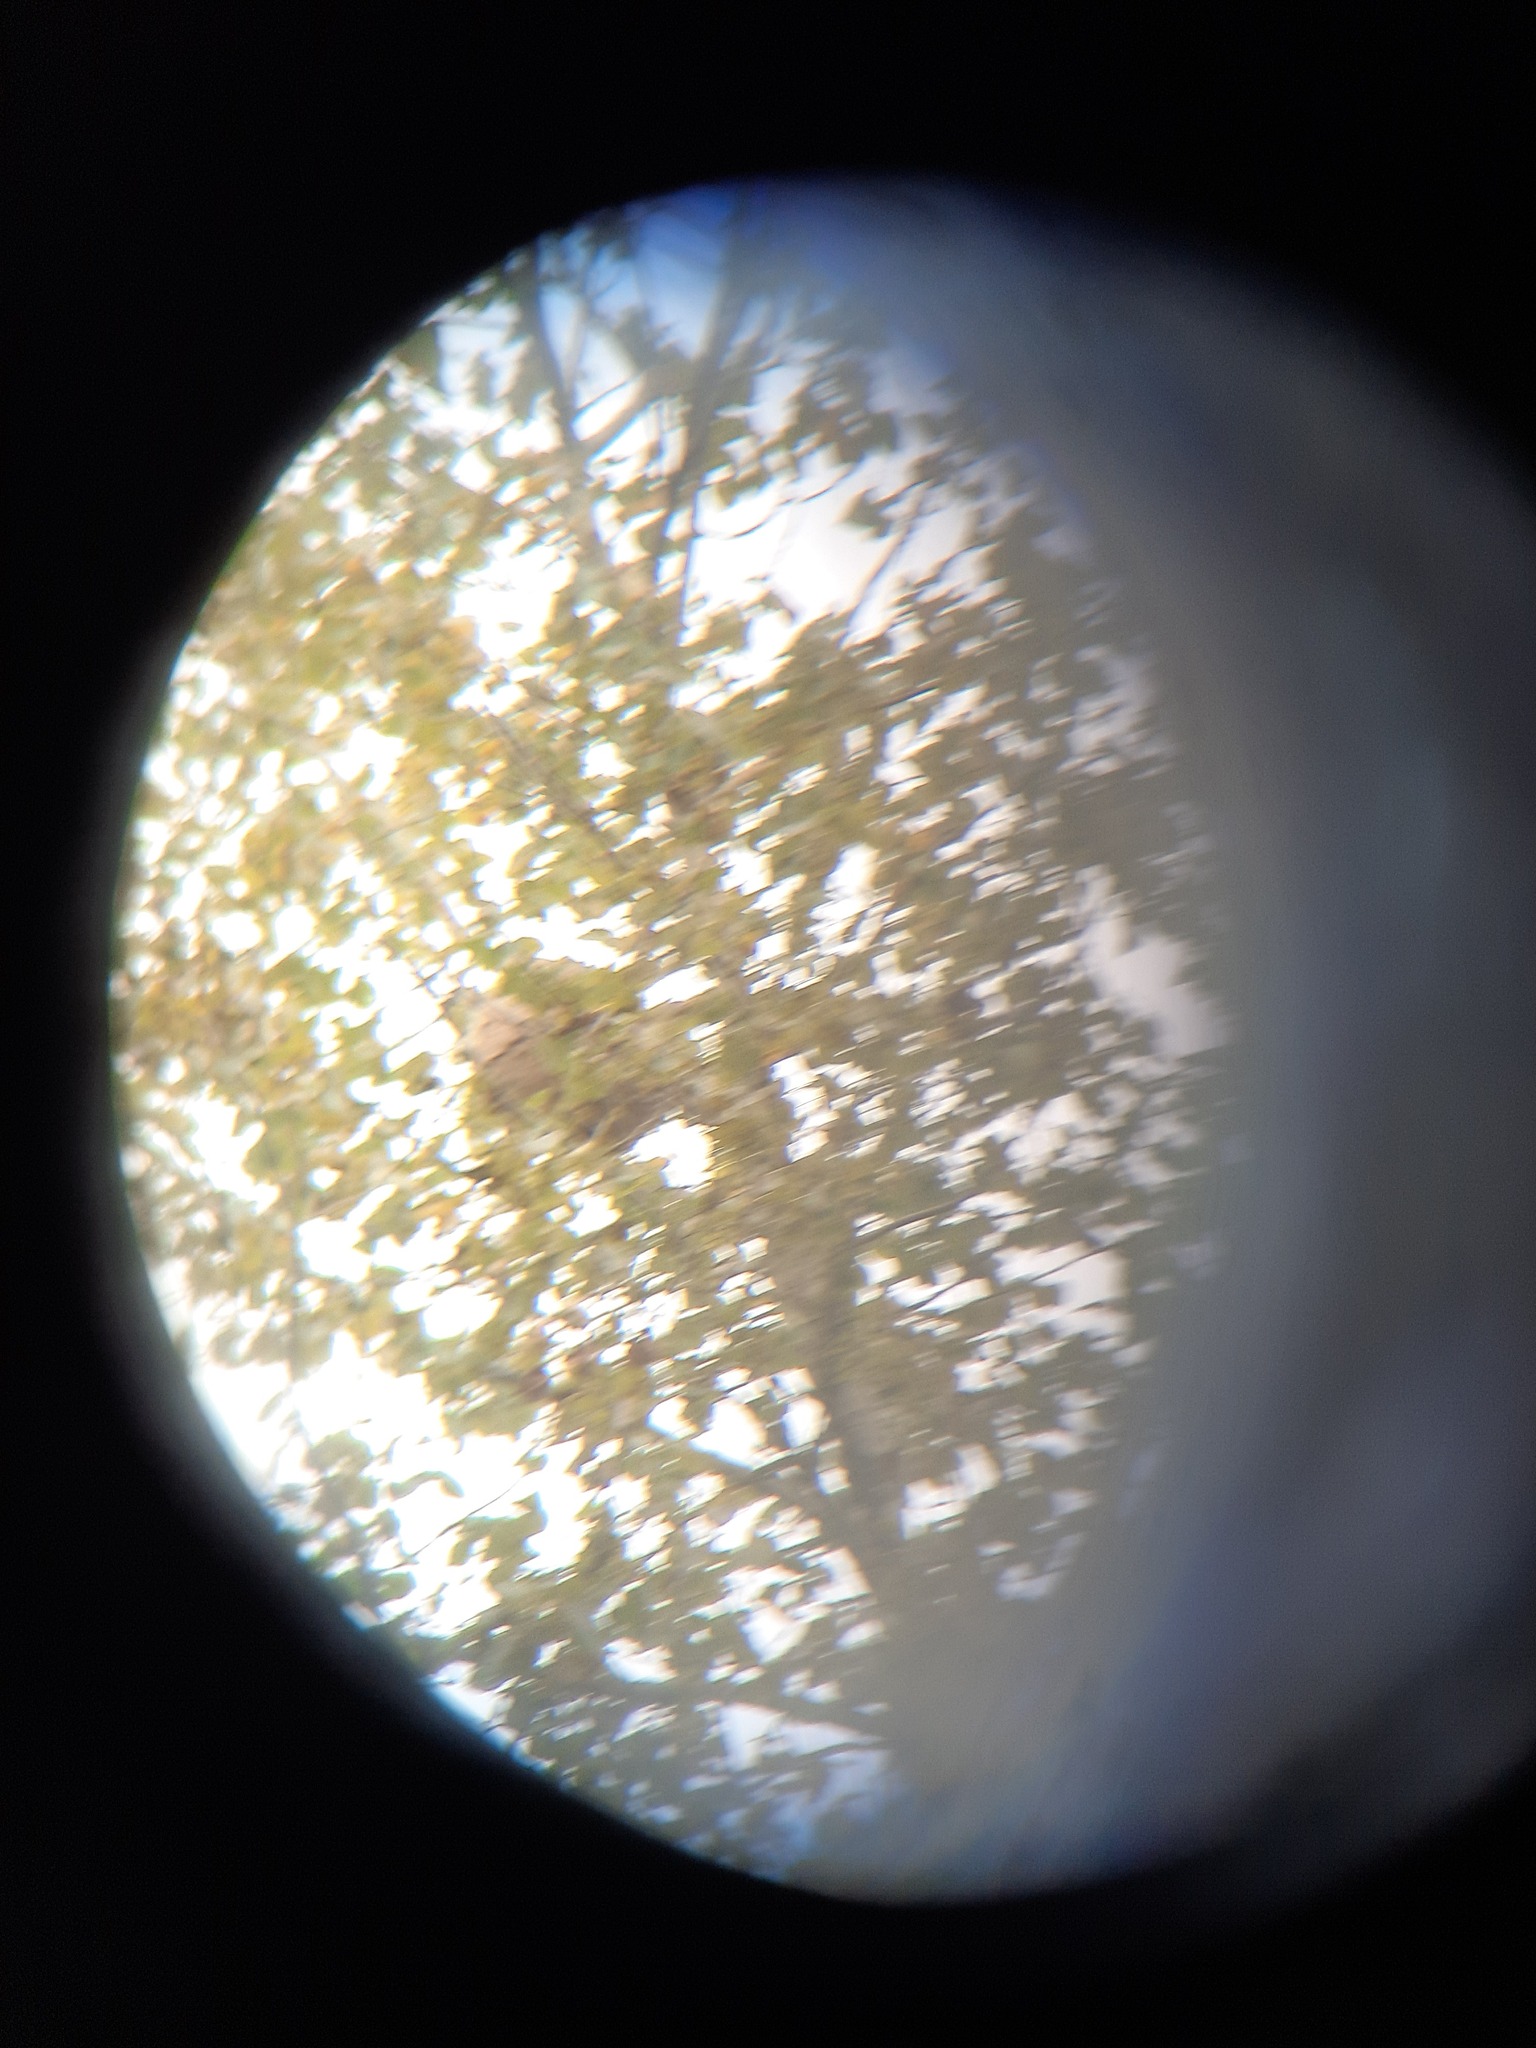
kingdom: Animalia
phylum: Arthropoda
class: Insecta
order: Hymenoptera
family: Vespidae
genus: Vespa
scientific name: Vespa velutina
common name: Asian hornet
